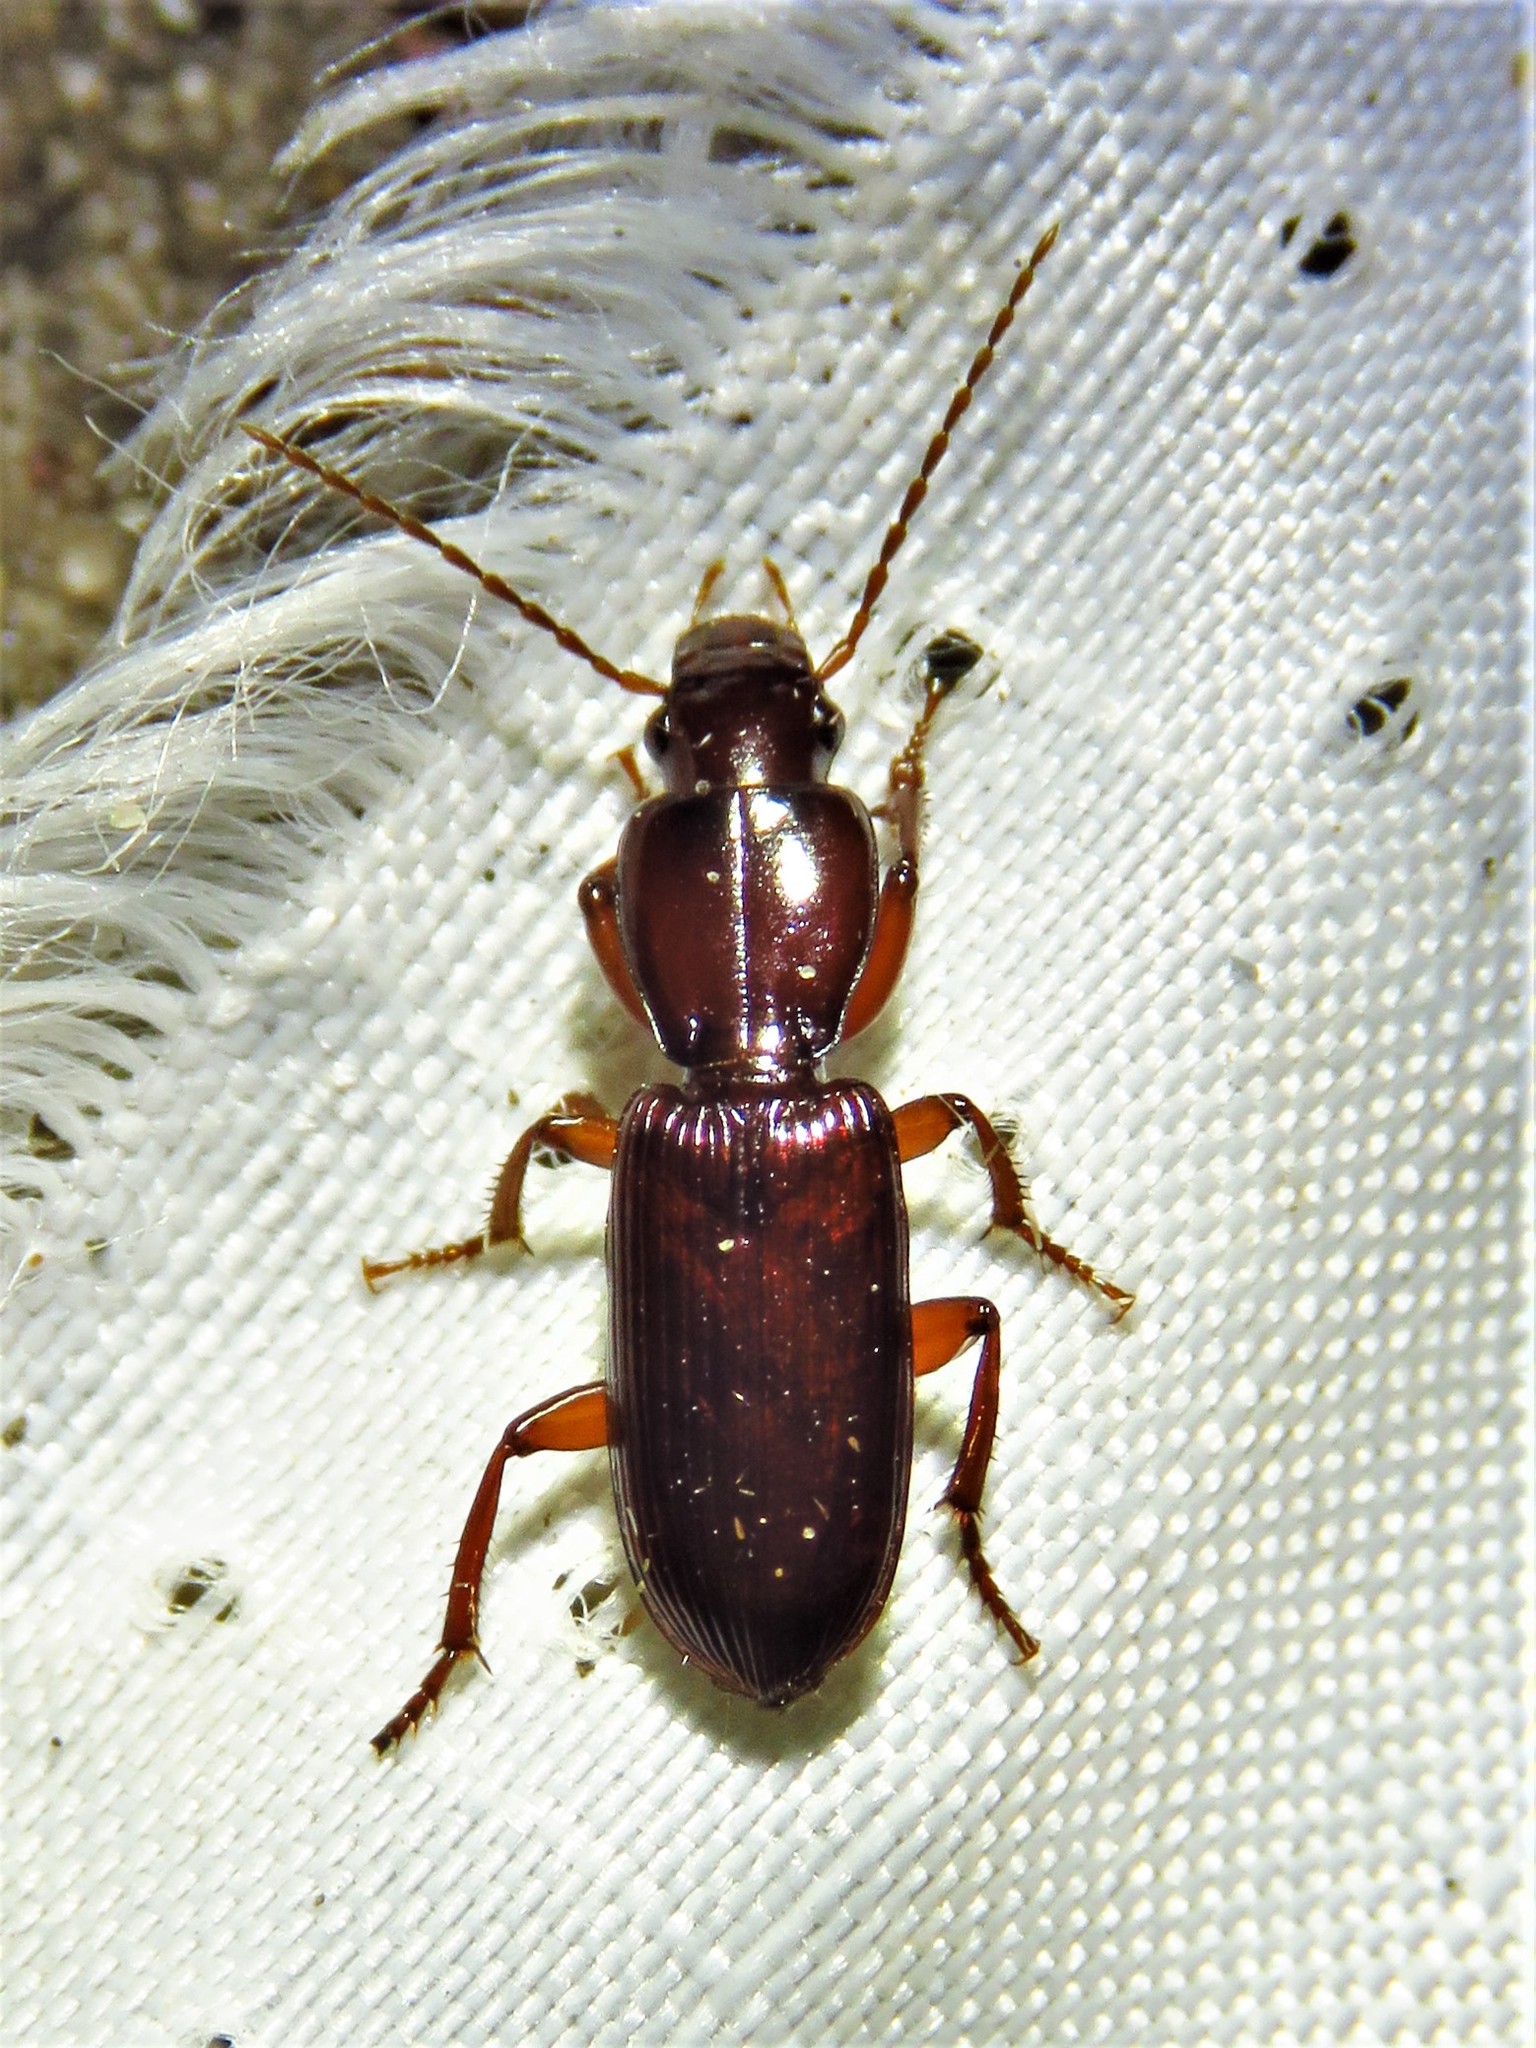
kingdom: Animalia
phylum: Arthropoda
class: Insecta
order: Coleoptera
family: Carabidae
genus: Stenomorphus
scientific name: Stenomorphus californicus
